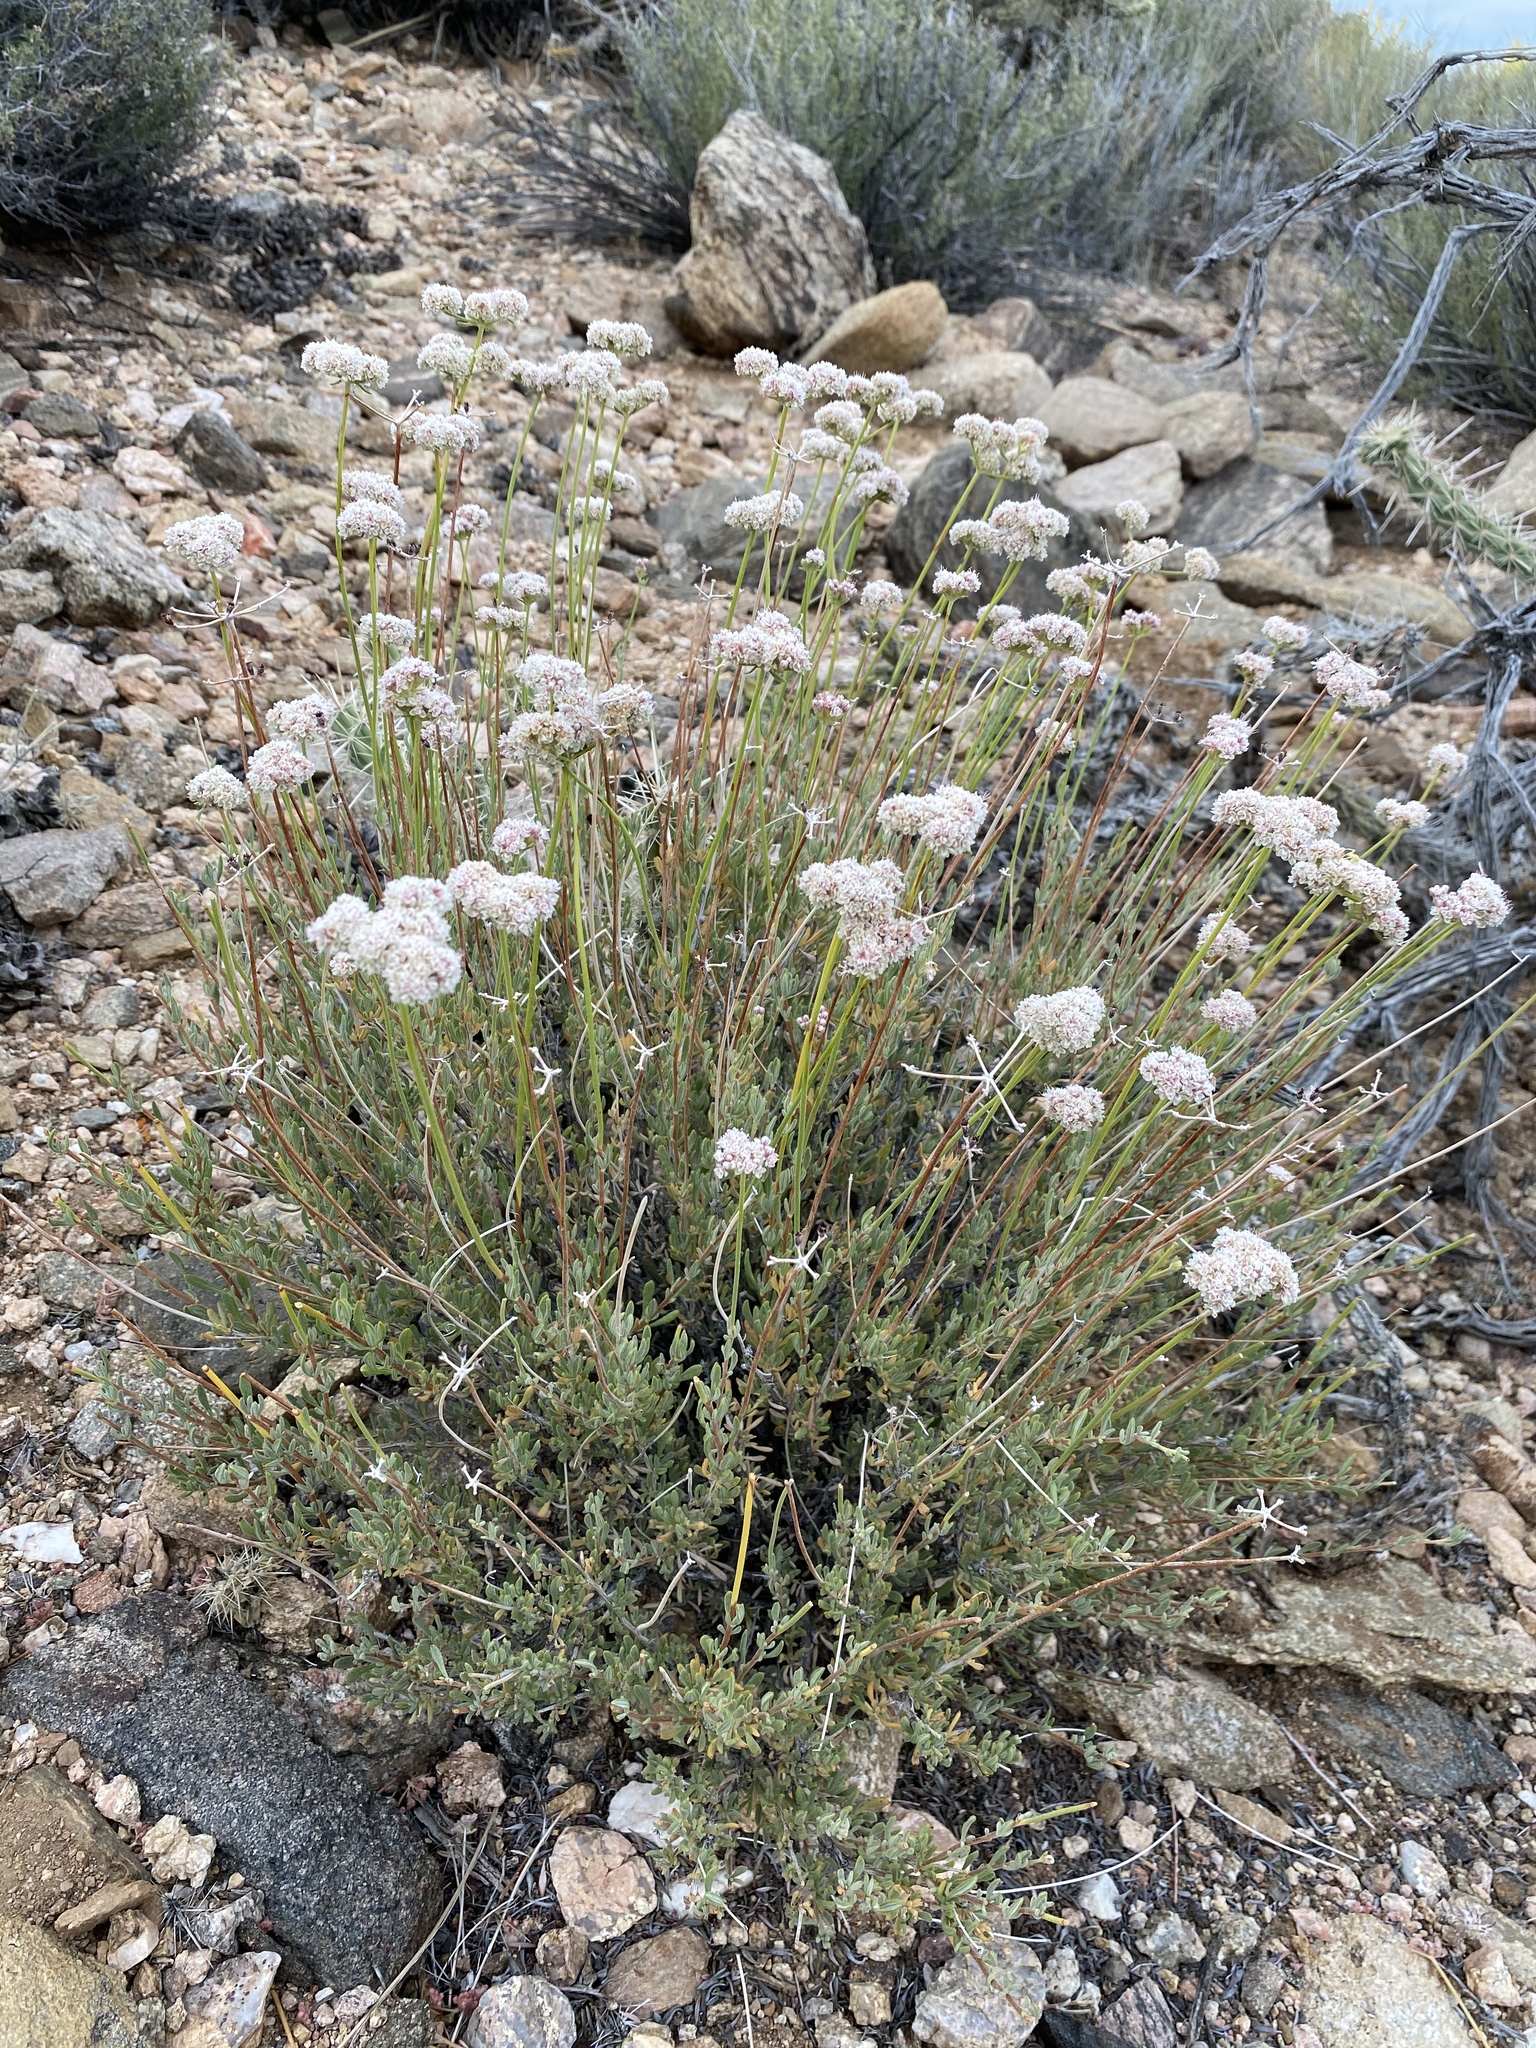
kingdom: Plantae
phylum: Tracheophyta
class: Magnoliopsida
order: Caryophyllales
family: Polygonaceae
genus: Eriogonum
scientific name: Eriogonum fasciculatum
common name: California wild buckwheat
